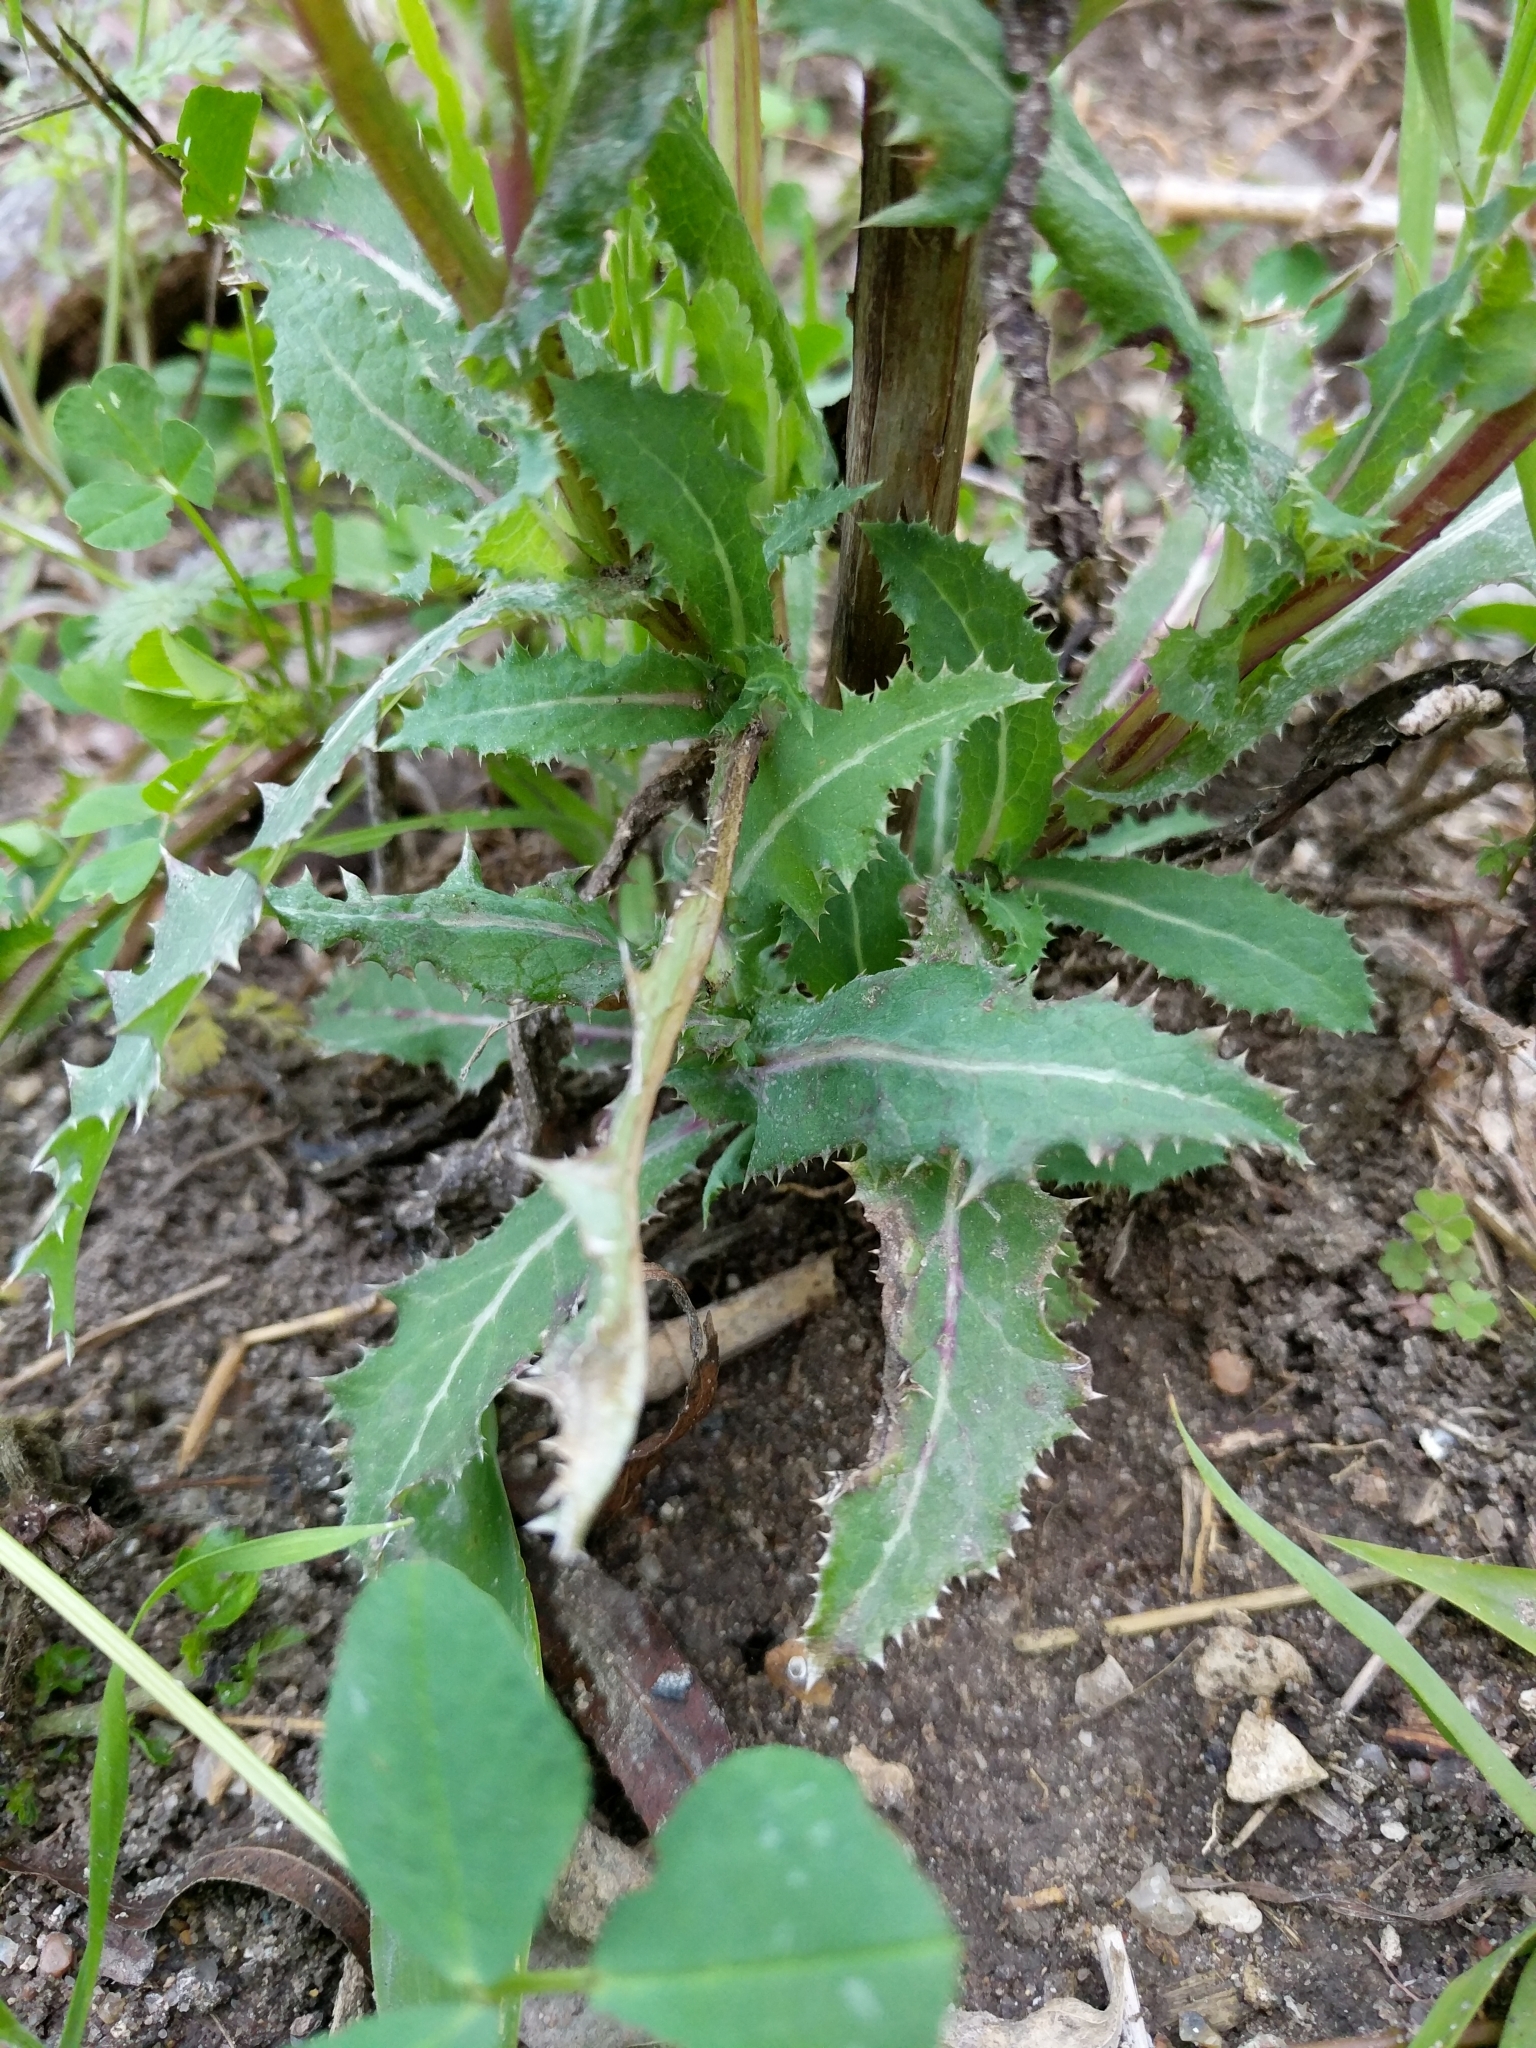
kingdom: Plantae
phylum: Tracheophyta
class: Magnoliopsida
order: Asterales
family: Asteraceae
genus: Sonchus
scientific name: Sonchus asper
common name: Prickly sow-thistle
